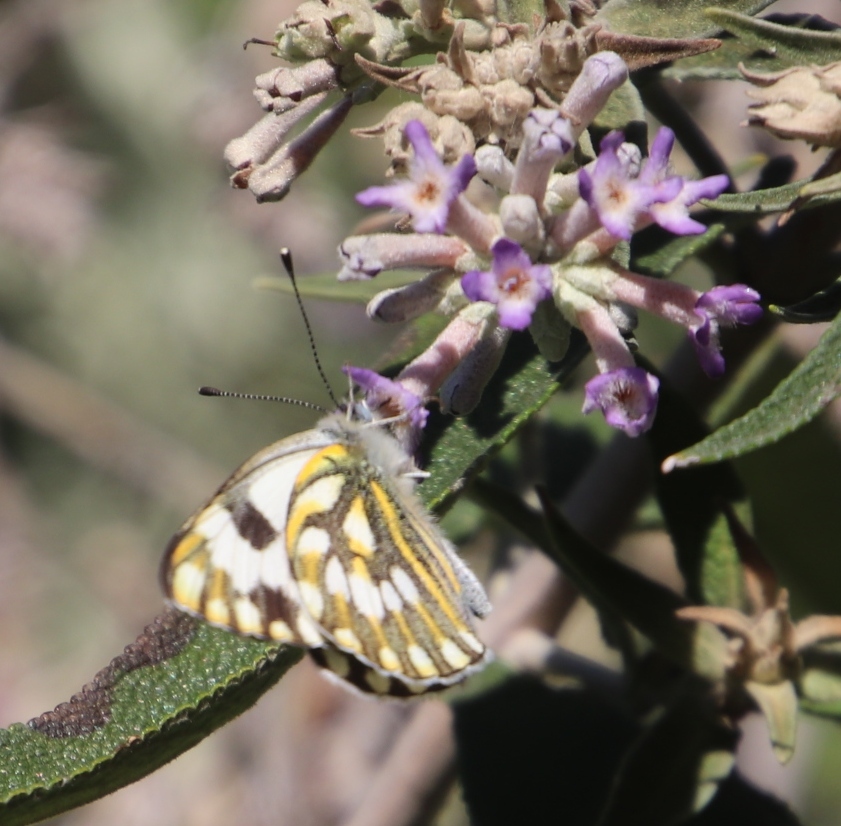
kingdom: Animalia
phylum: Arthropoda
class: Insecta
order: Lepidoptera
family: Pieridae
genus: Pontia
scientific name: Pontia helice
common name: Meadow white
